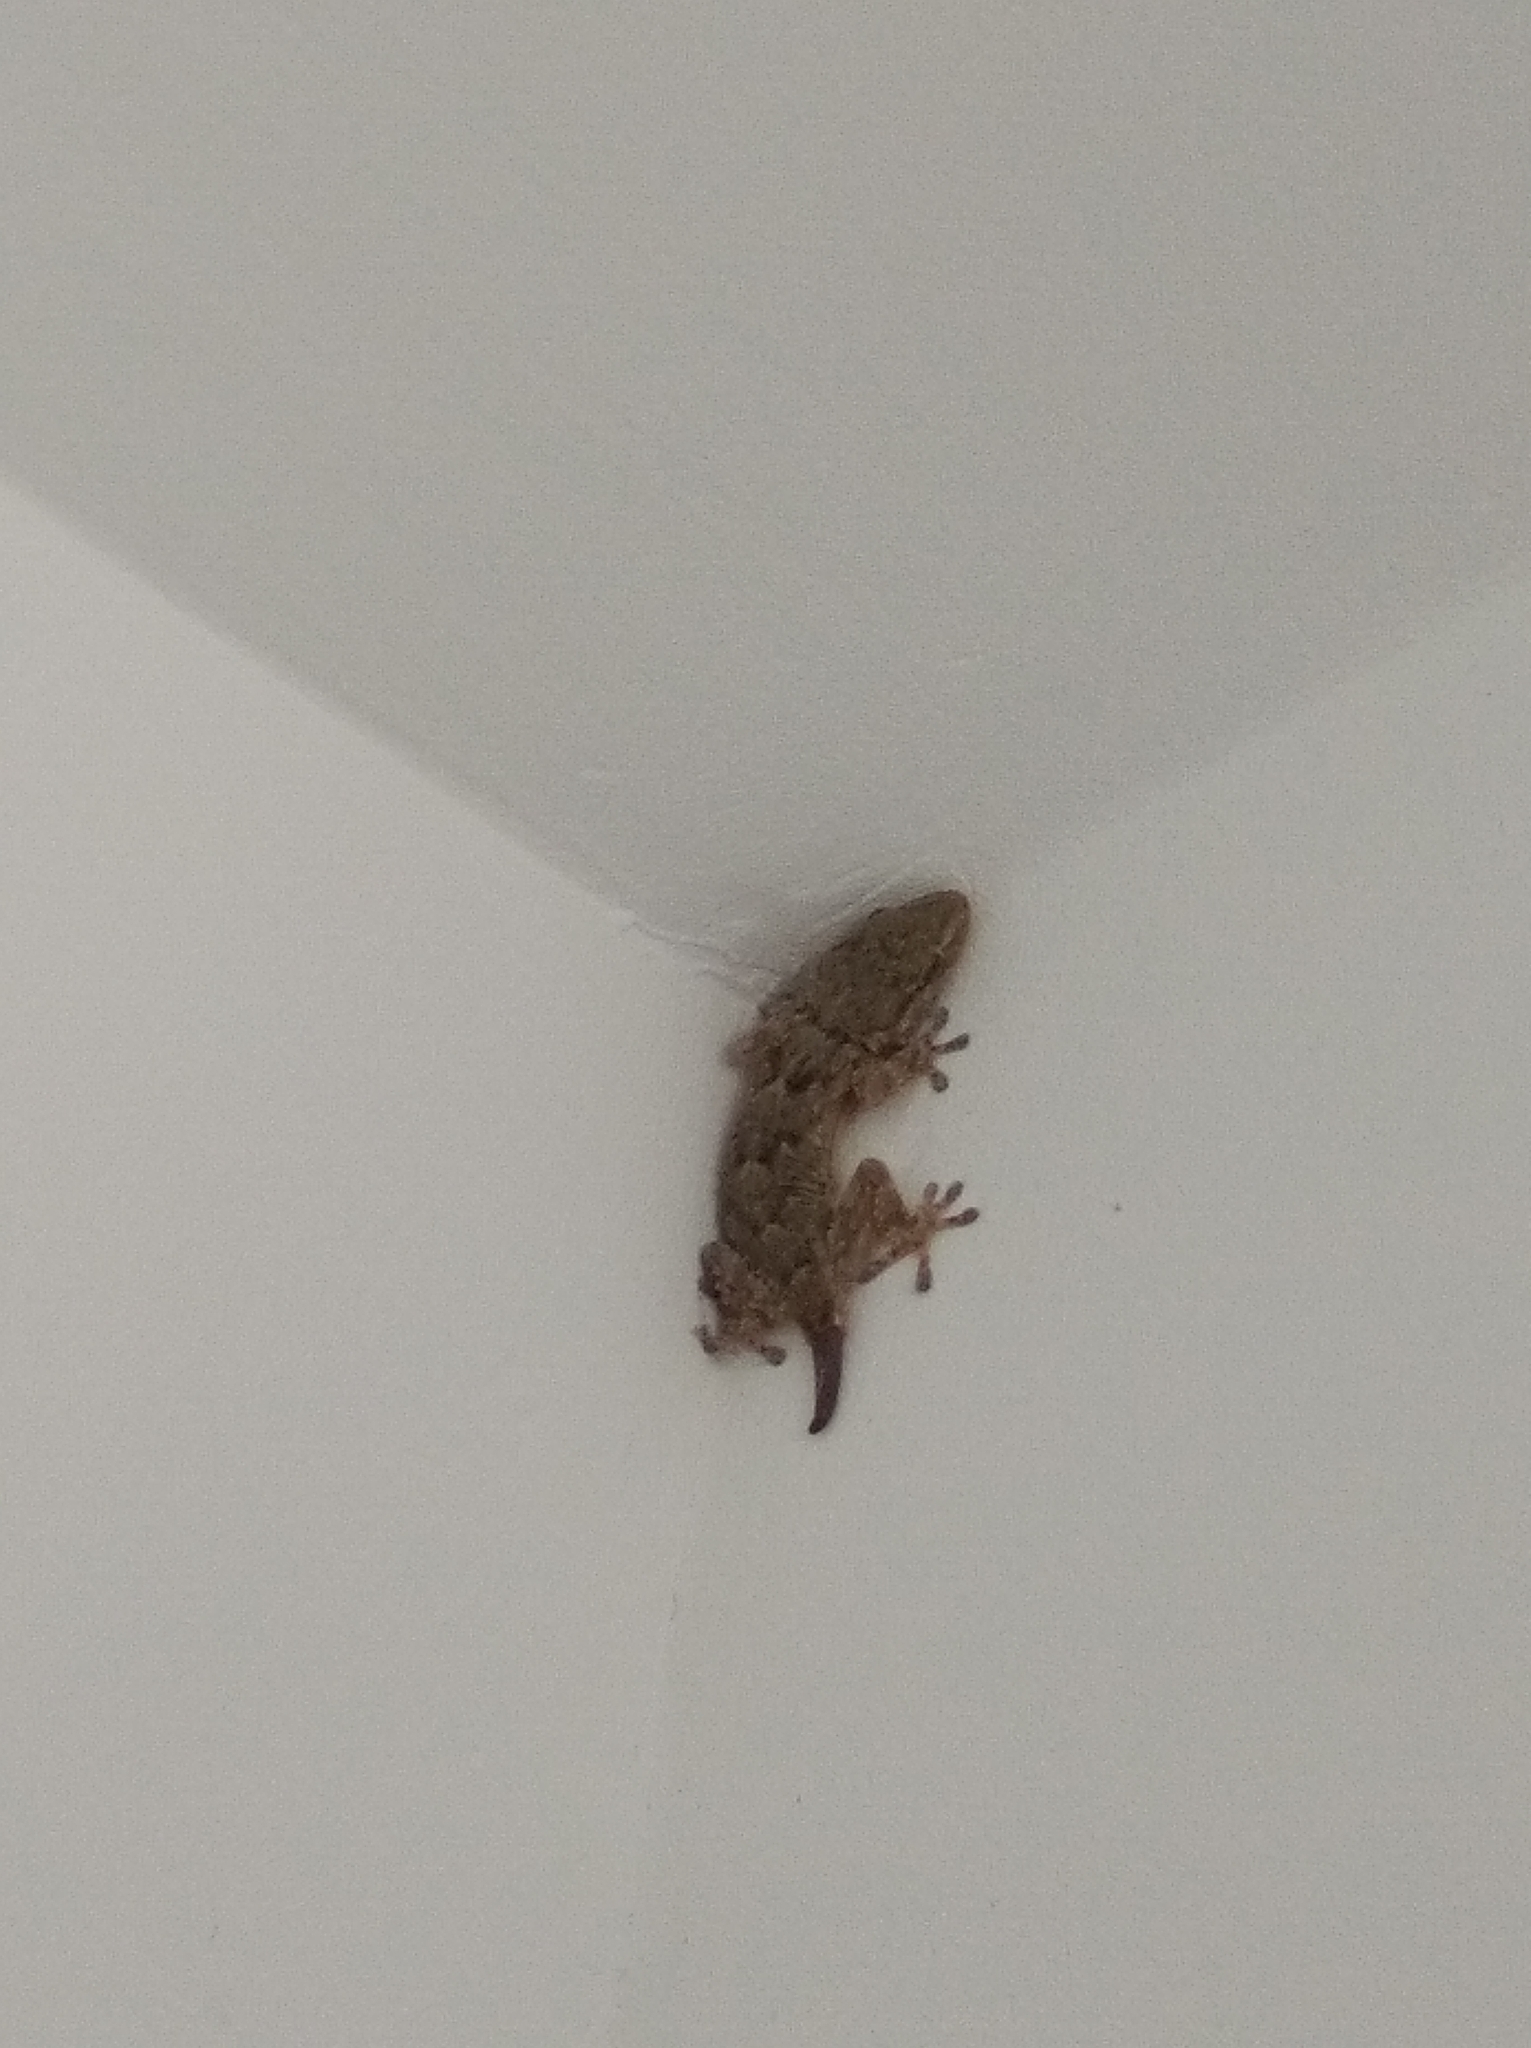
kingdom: Animalia
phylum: Chordata
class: Squamata
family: Phyllodactylidae
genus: Tarentola
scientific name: Tarentola mauritanica
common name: Moorish gecko
